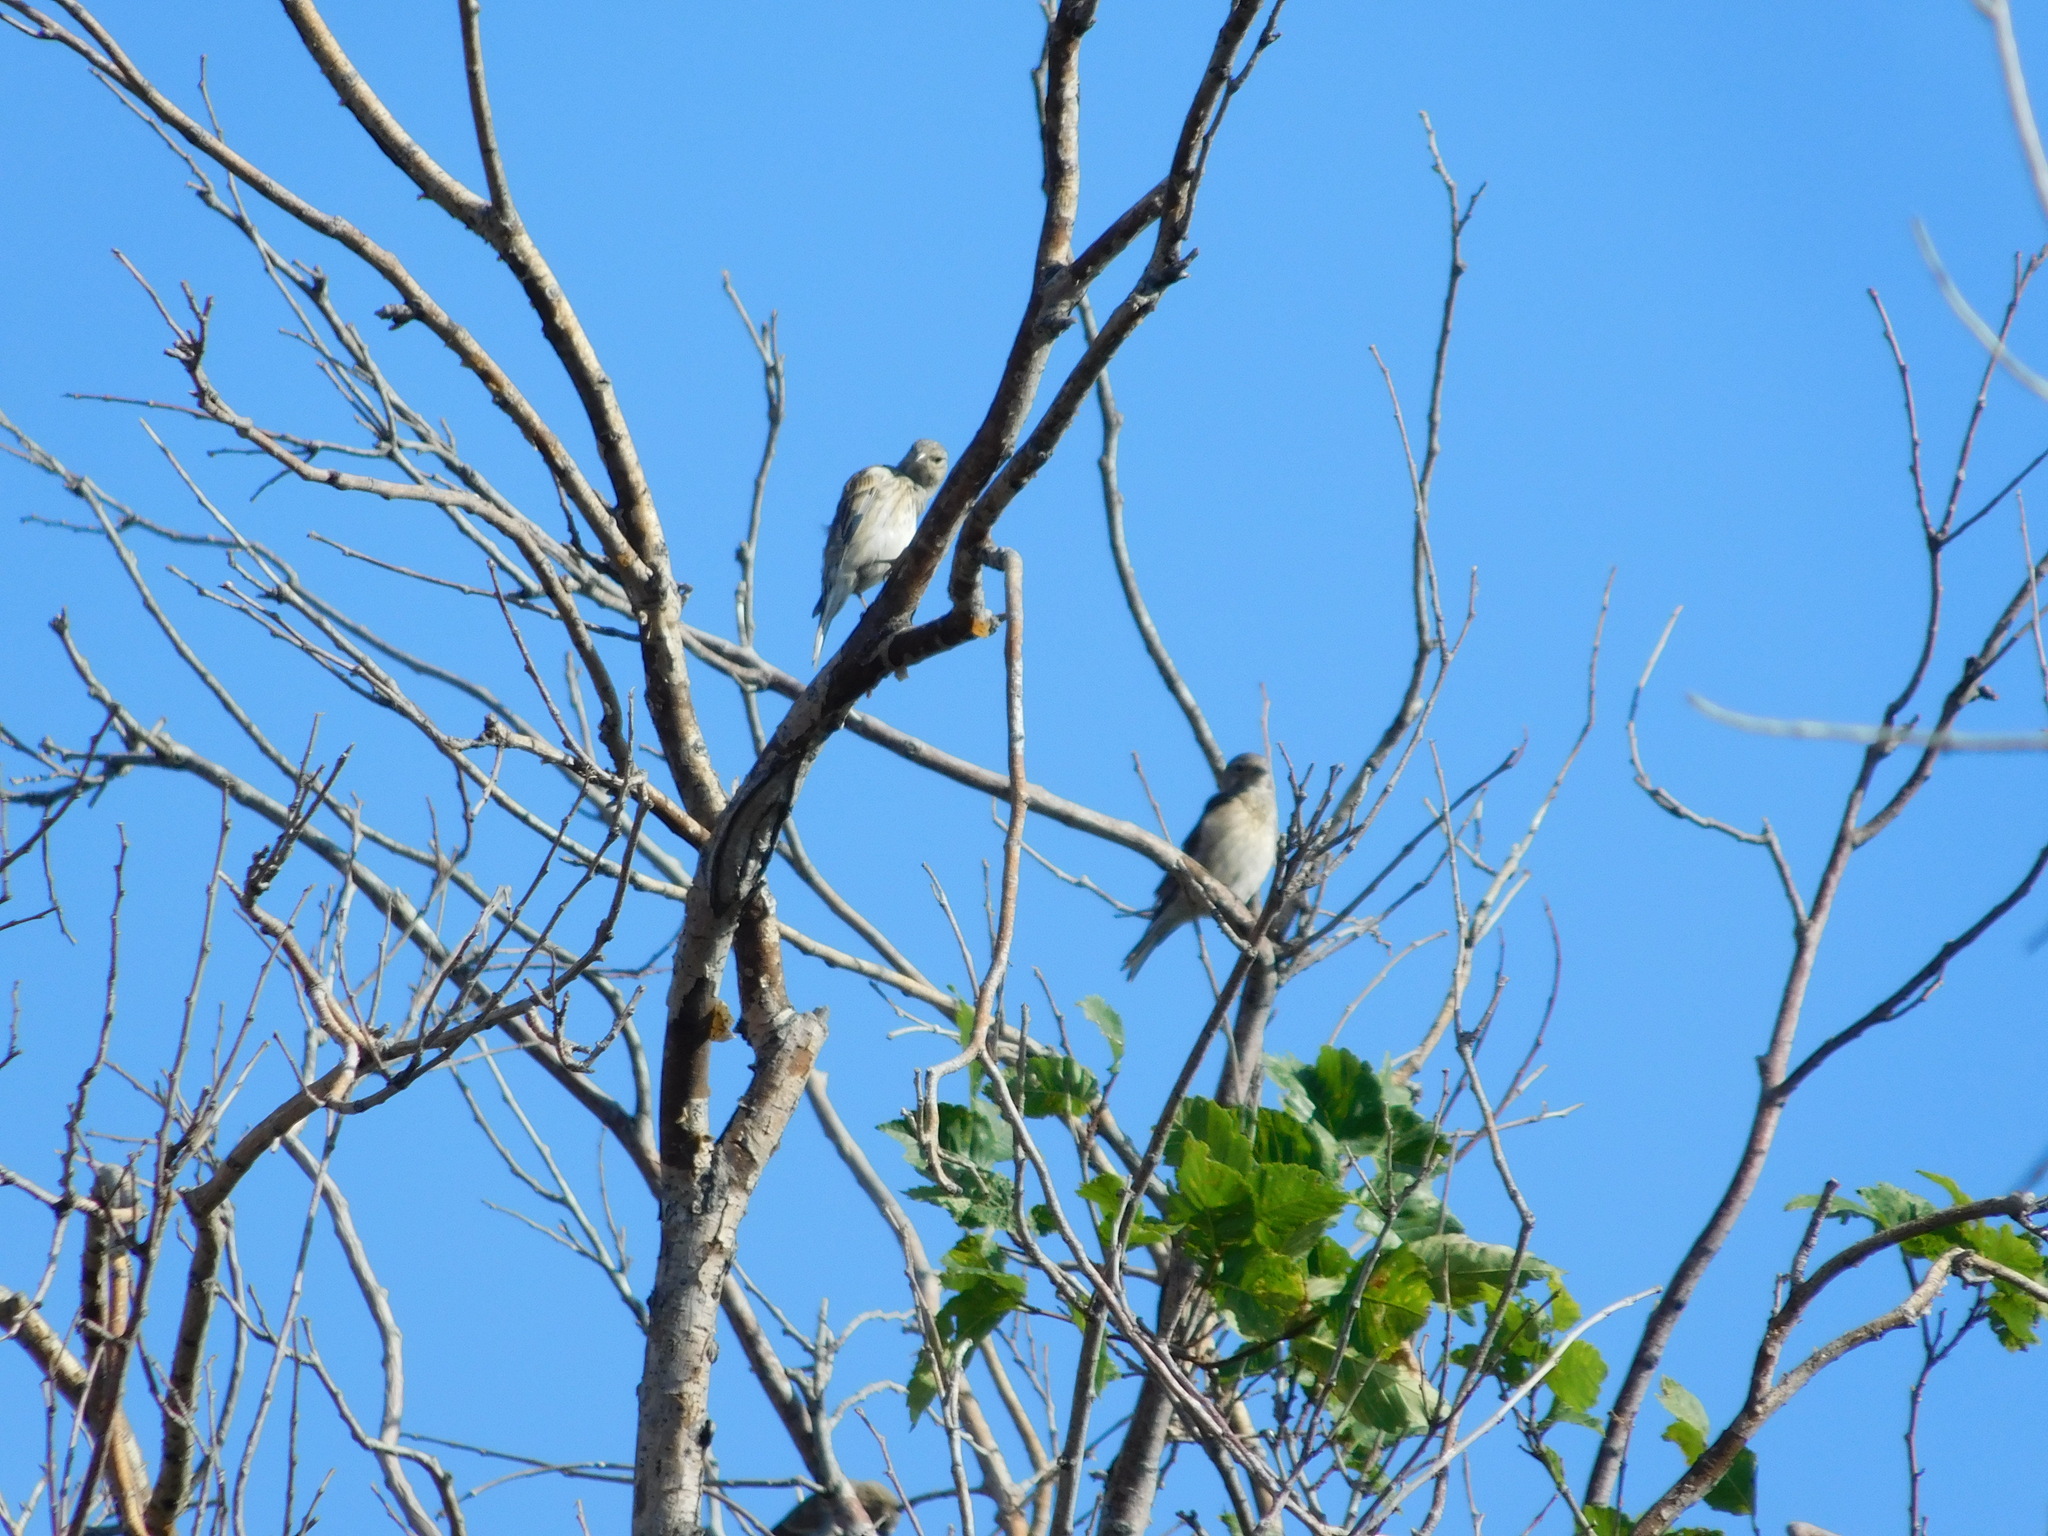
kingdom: Animalia
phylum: Chordata
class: Aves
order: Passeriformes
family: Fringillidae
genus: Linaria
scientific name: Linaria cannabina
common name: Common linnet
